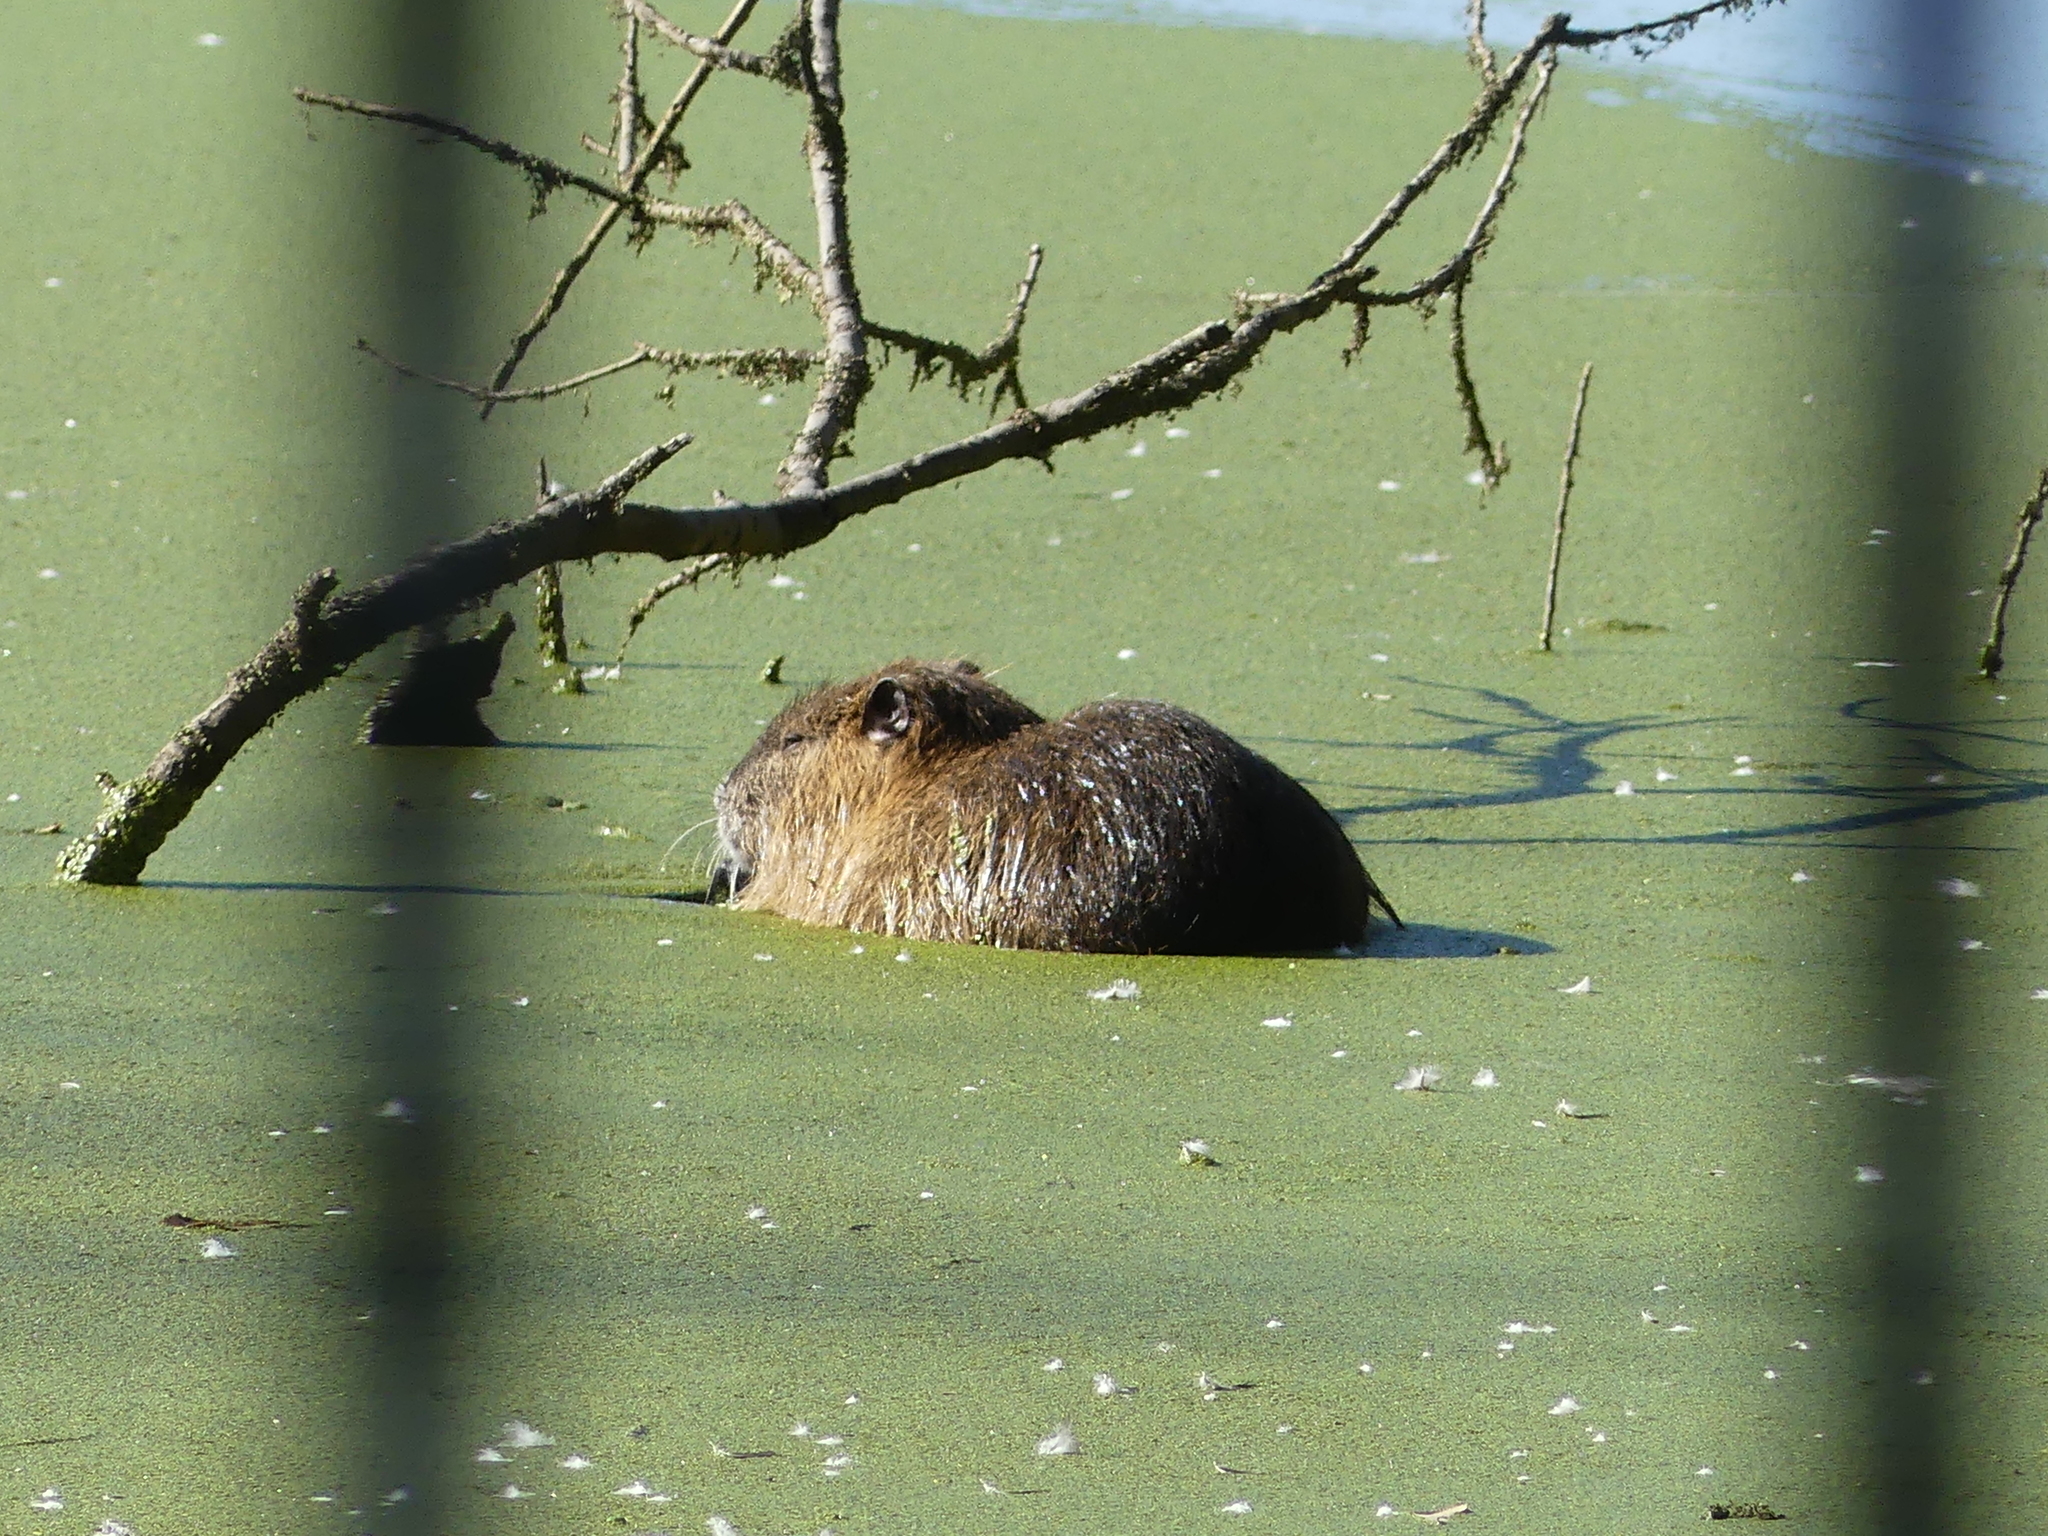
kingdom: Animalia
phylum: Chordata
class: Mammalia
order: Rodentia
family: Myocastoridae
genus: Myocastor
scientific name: Myocastor coypus
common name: Coypu
